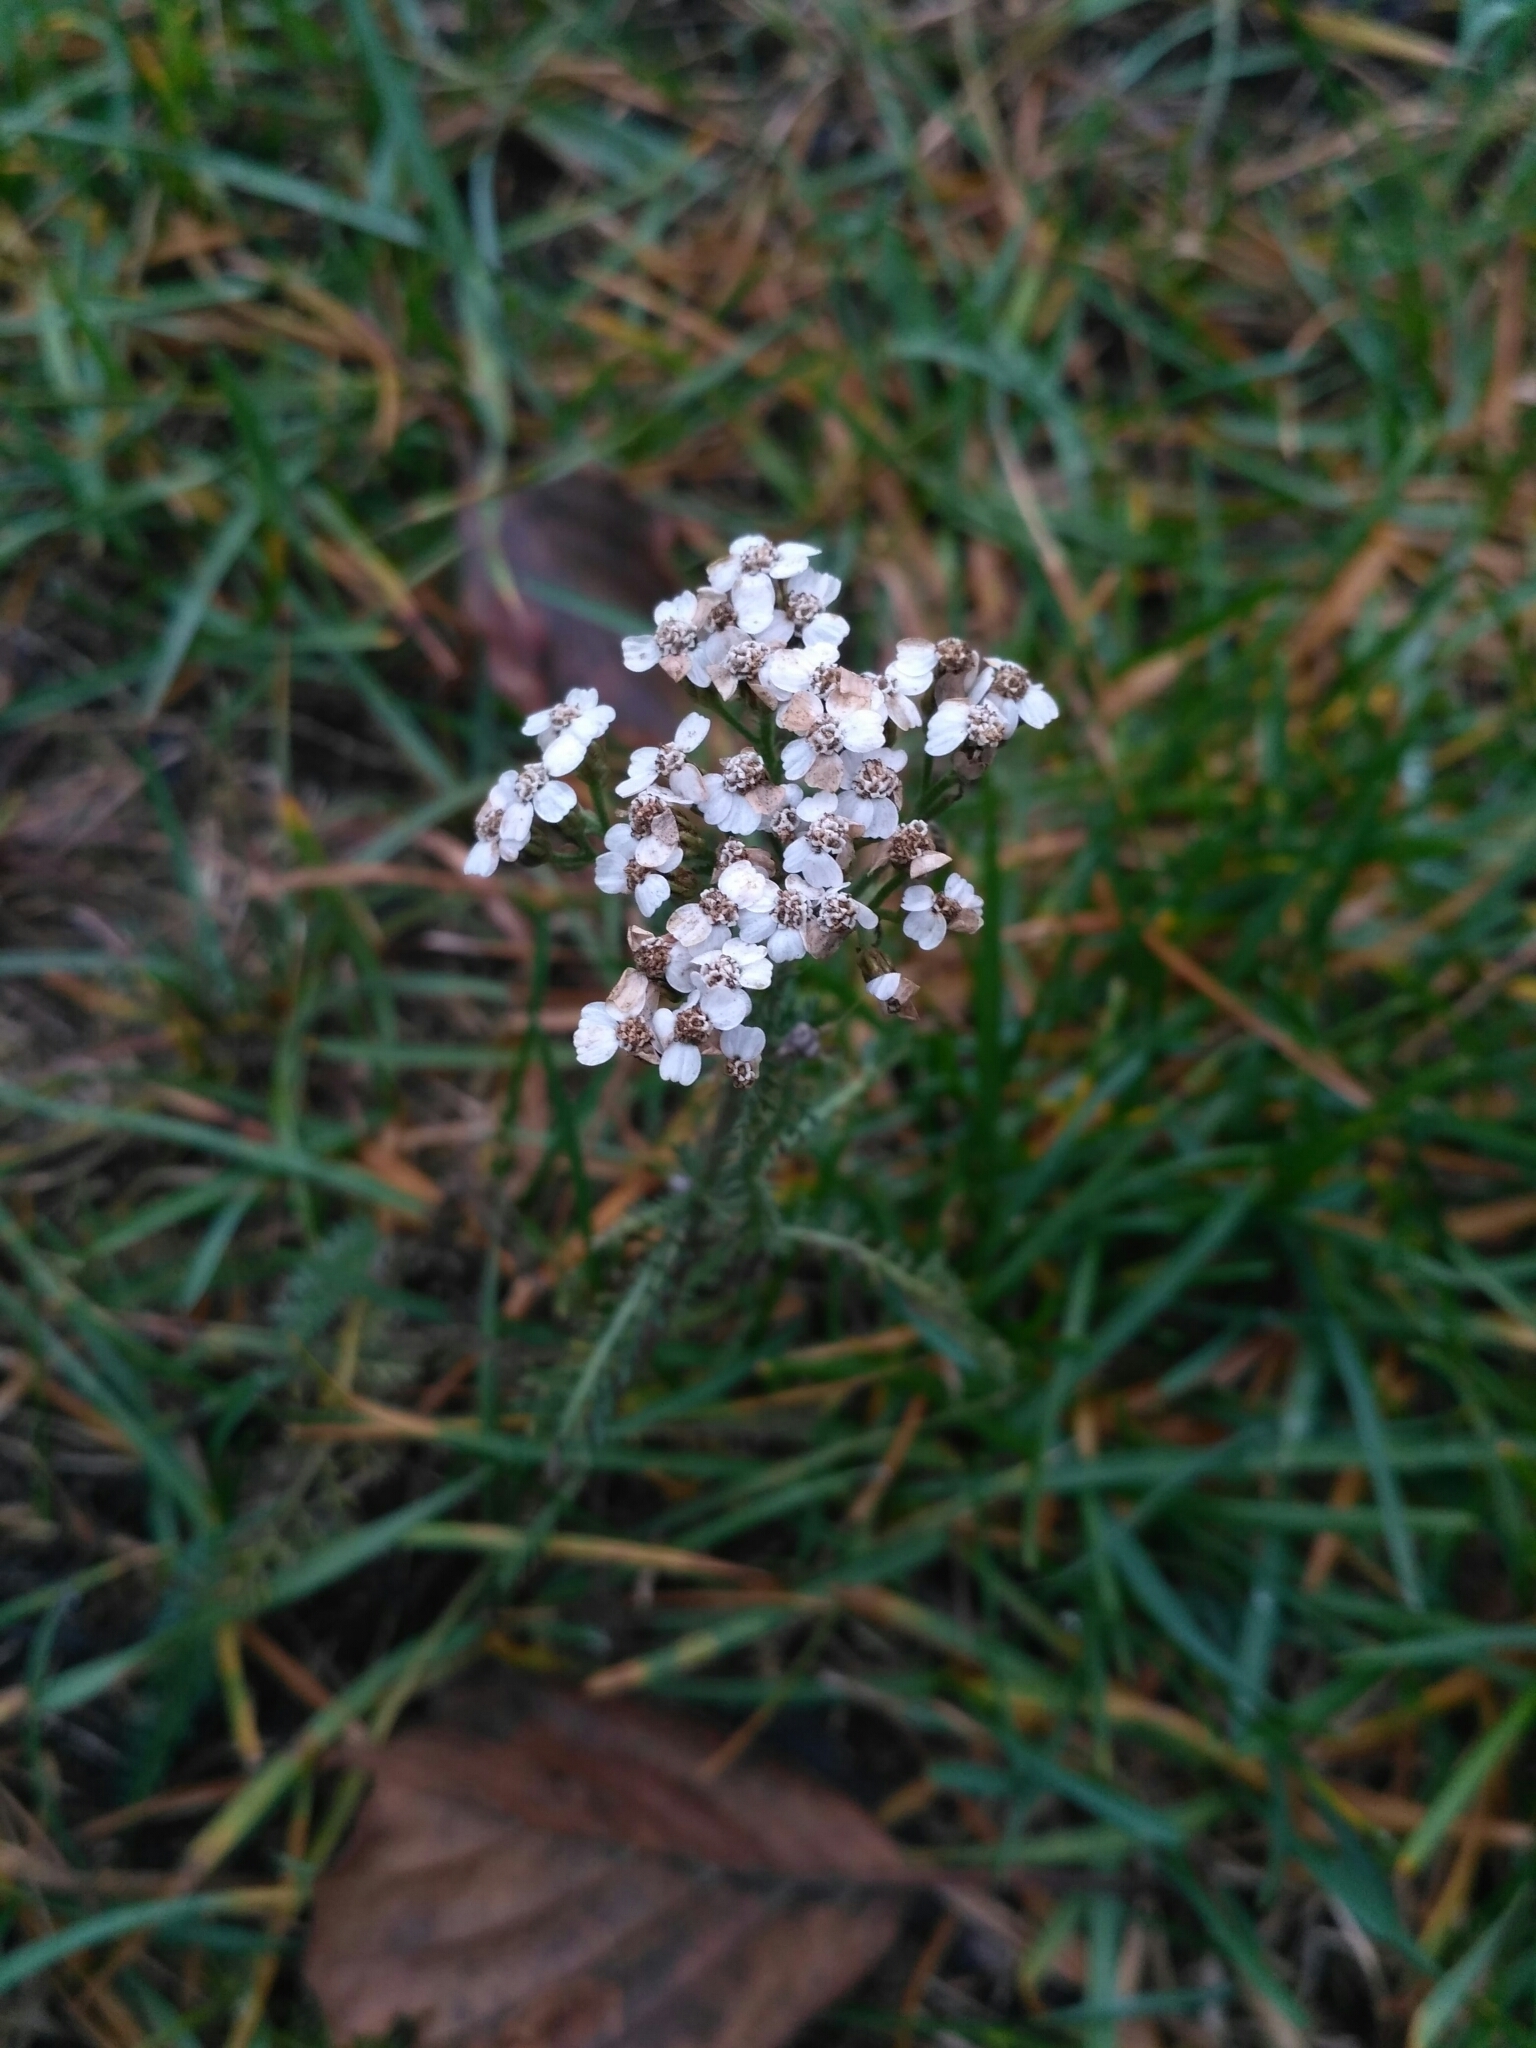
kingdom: Plantae
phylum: Tracheophyta
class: Magnoliopsida
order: Asterales
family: Asteraceae
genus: Achillea
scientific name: Achillea millefolium
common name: Yarrow
